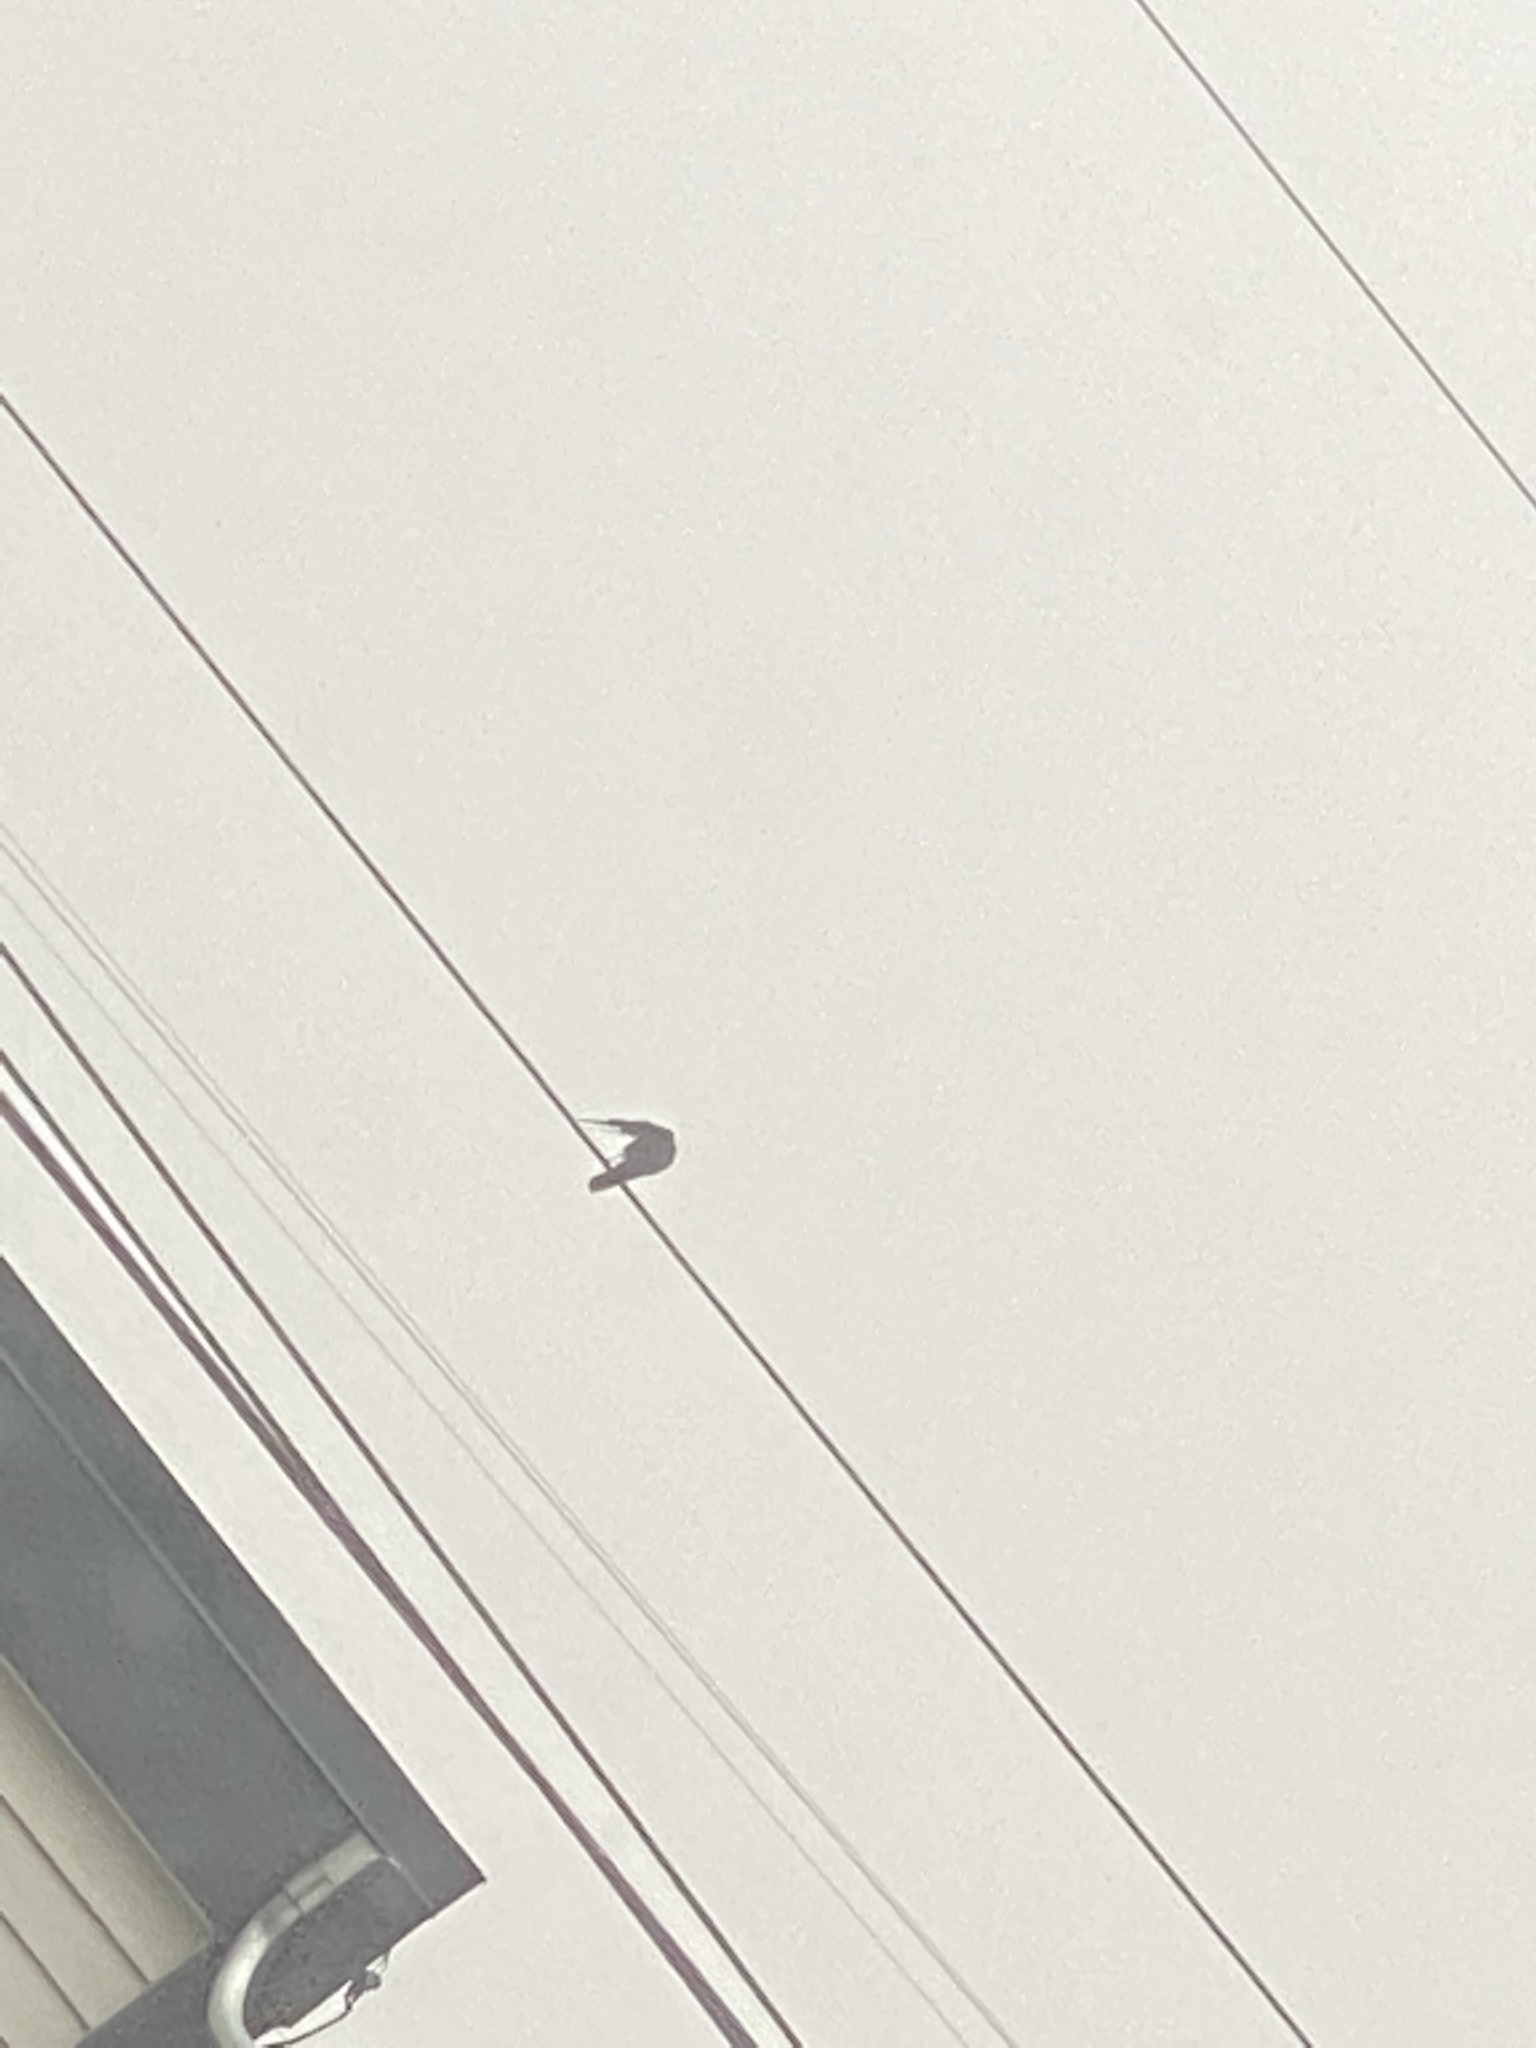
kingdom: Animalia
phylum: Chordata
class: Aves
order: Passeriformes
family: Corvidae
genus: Corvus
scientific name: Corvus brachyrhynchos
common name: American crow
